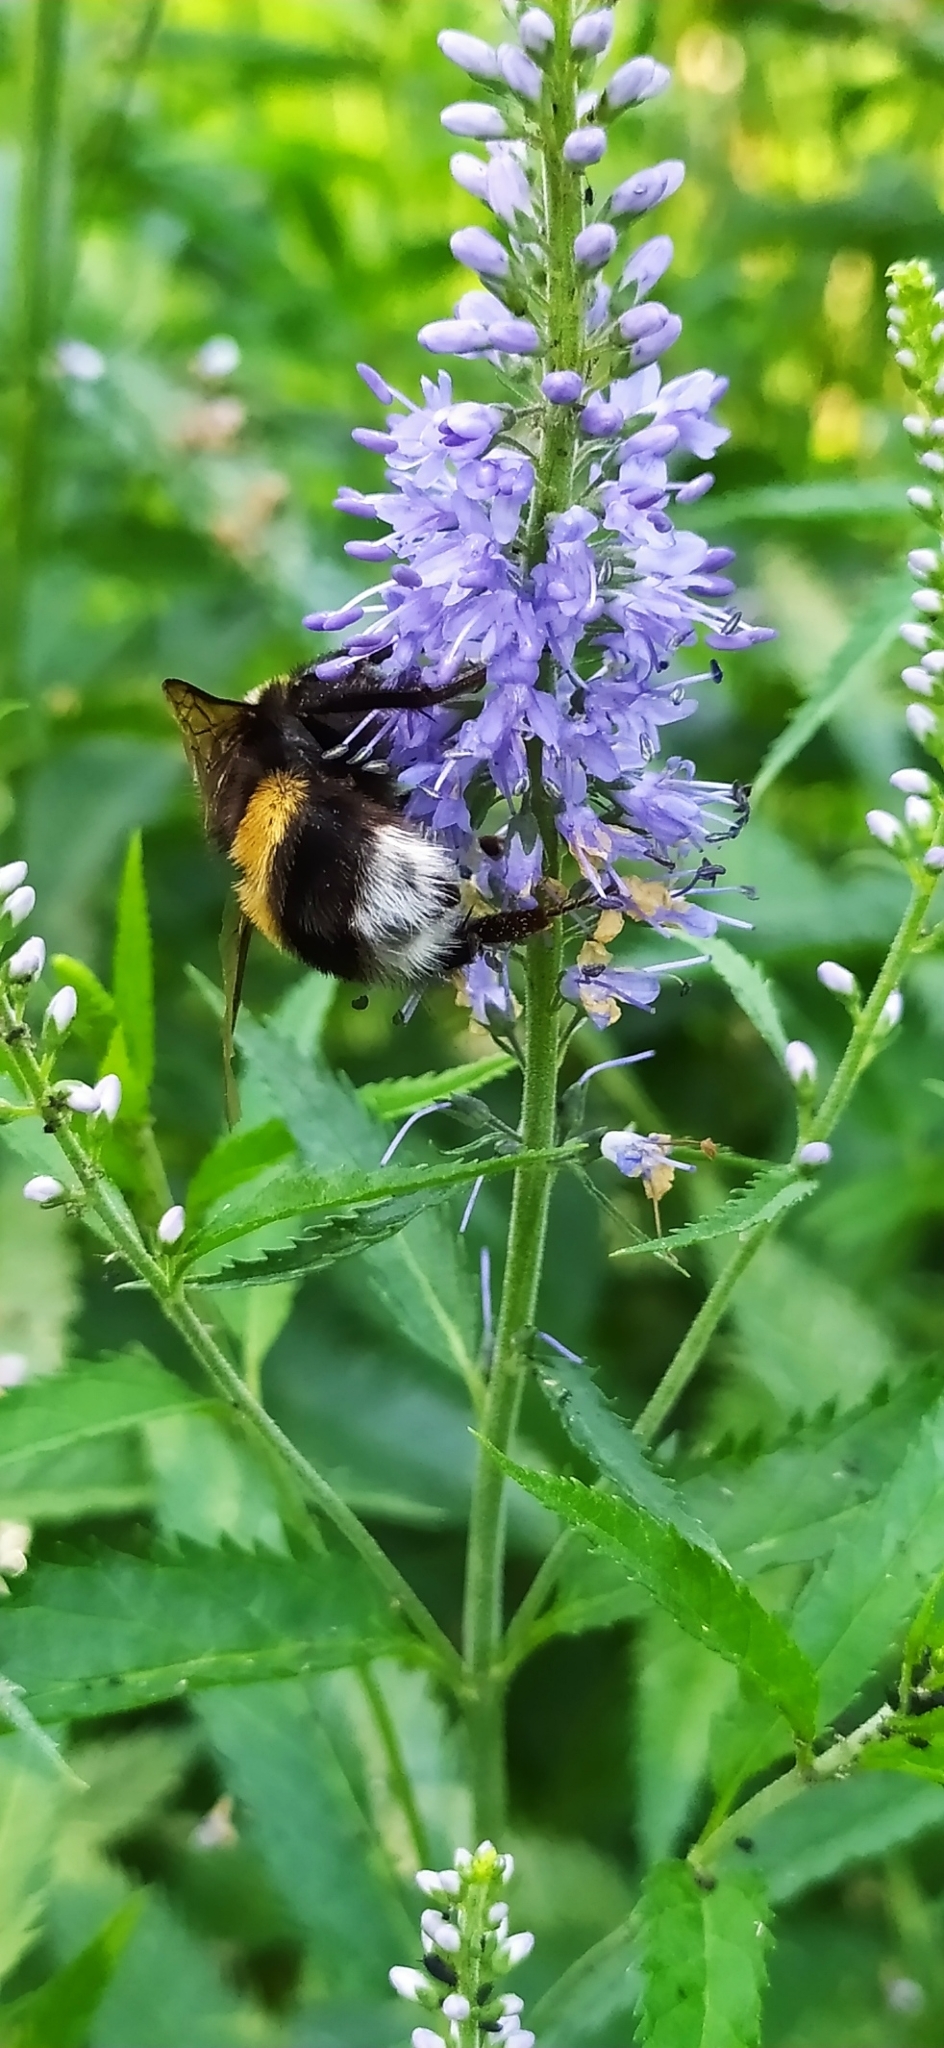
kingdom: Animalia
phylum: Arthropoda
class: Insecta
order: Hymenoptera
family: Apidae
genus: Bombus
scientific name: Bombus lucorum
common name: White-tailed bumblebee
